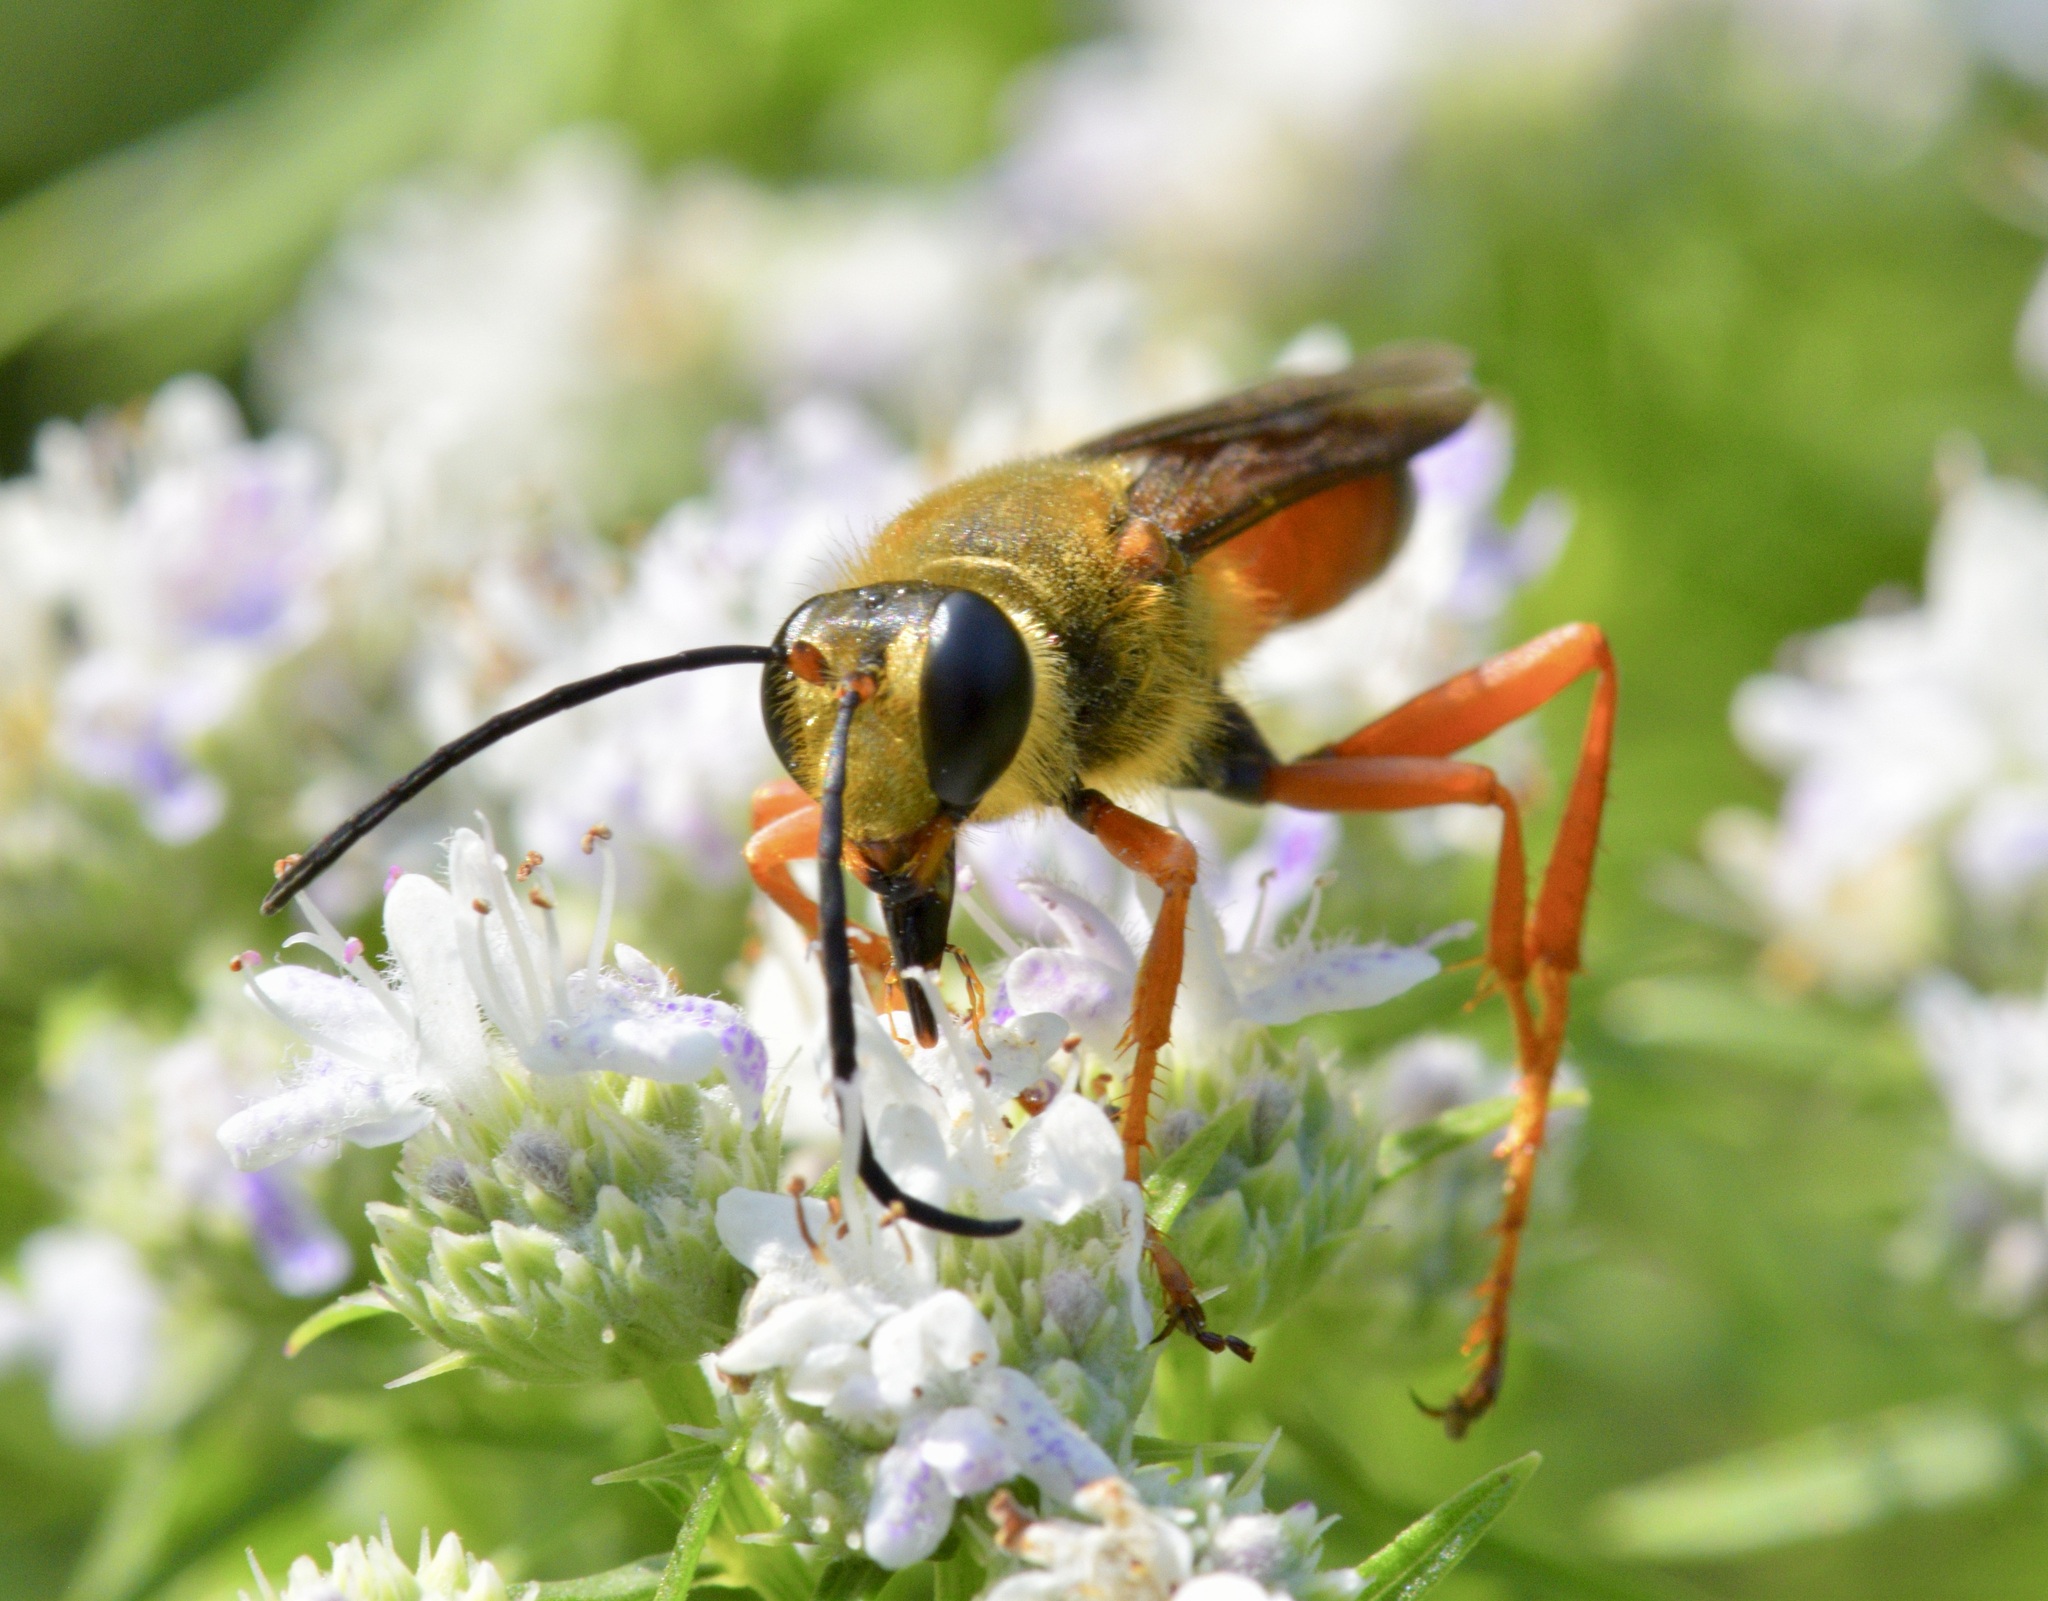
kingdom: Animalia
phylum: Arthropoda
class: Insecta
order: Hymenoptera
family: Sphecidae
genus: Sphex
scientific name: Sphex ichneumoneus
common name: Great golden digger wasp
